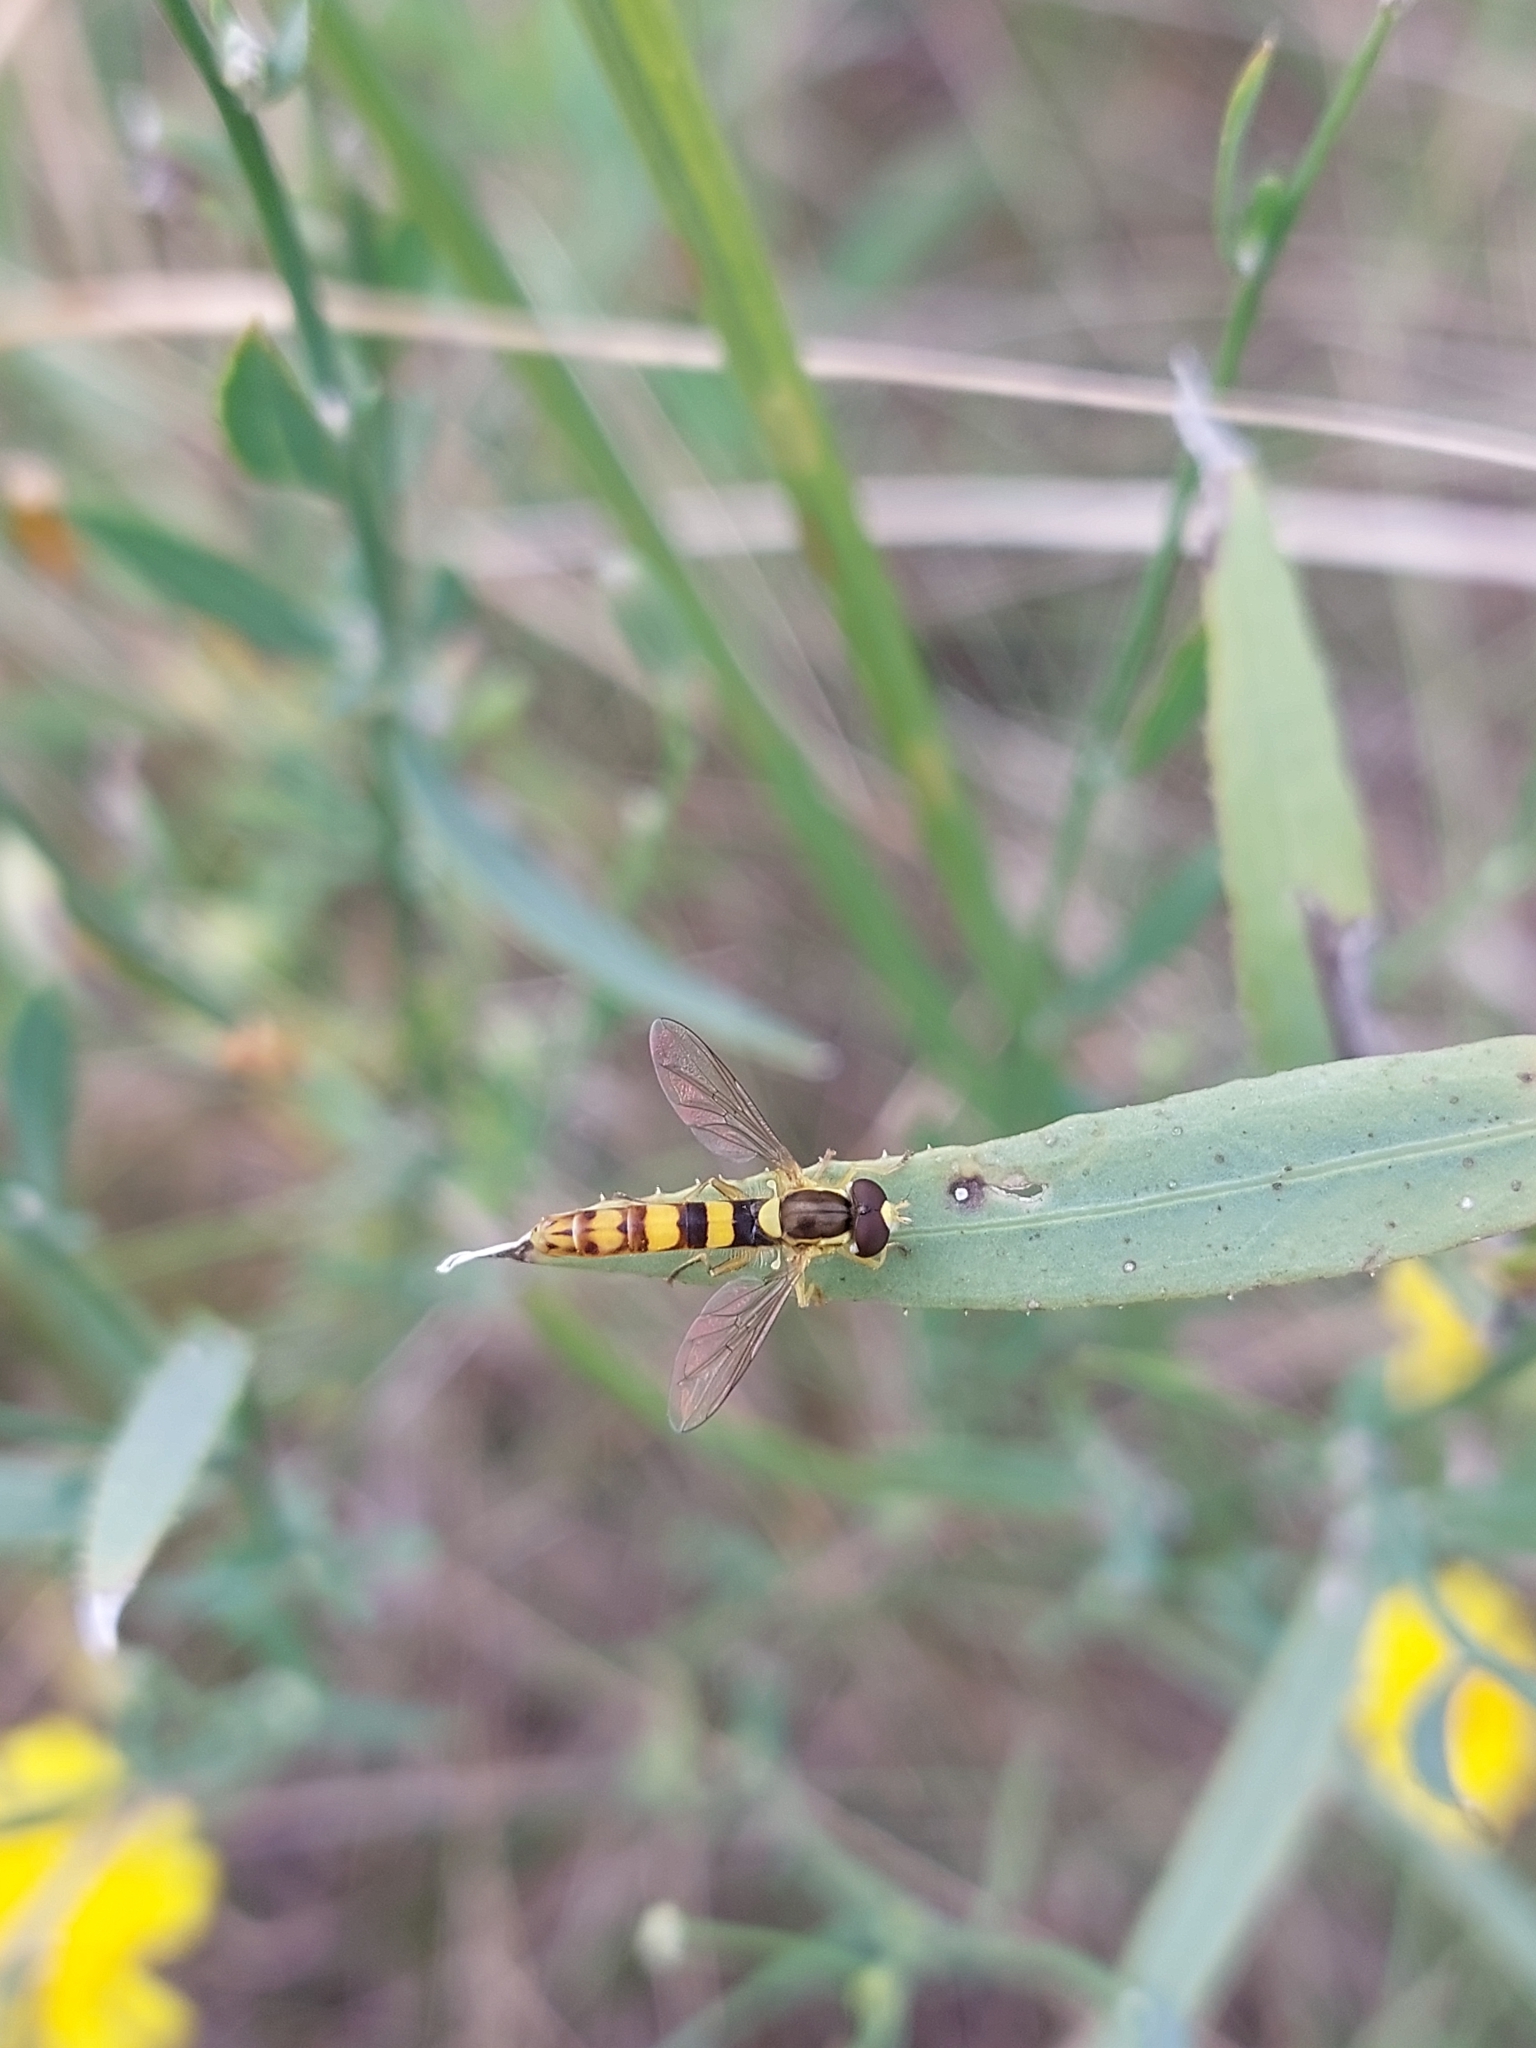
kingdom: Animalia
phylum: Arthropoda
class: Insecta
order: Diptera
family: Syrphidae
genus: Sphaerophoria
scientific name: Sphaerophoria scripta
